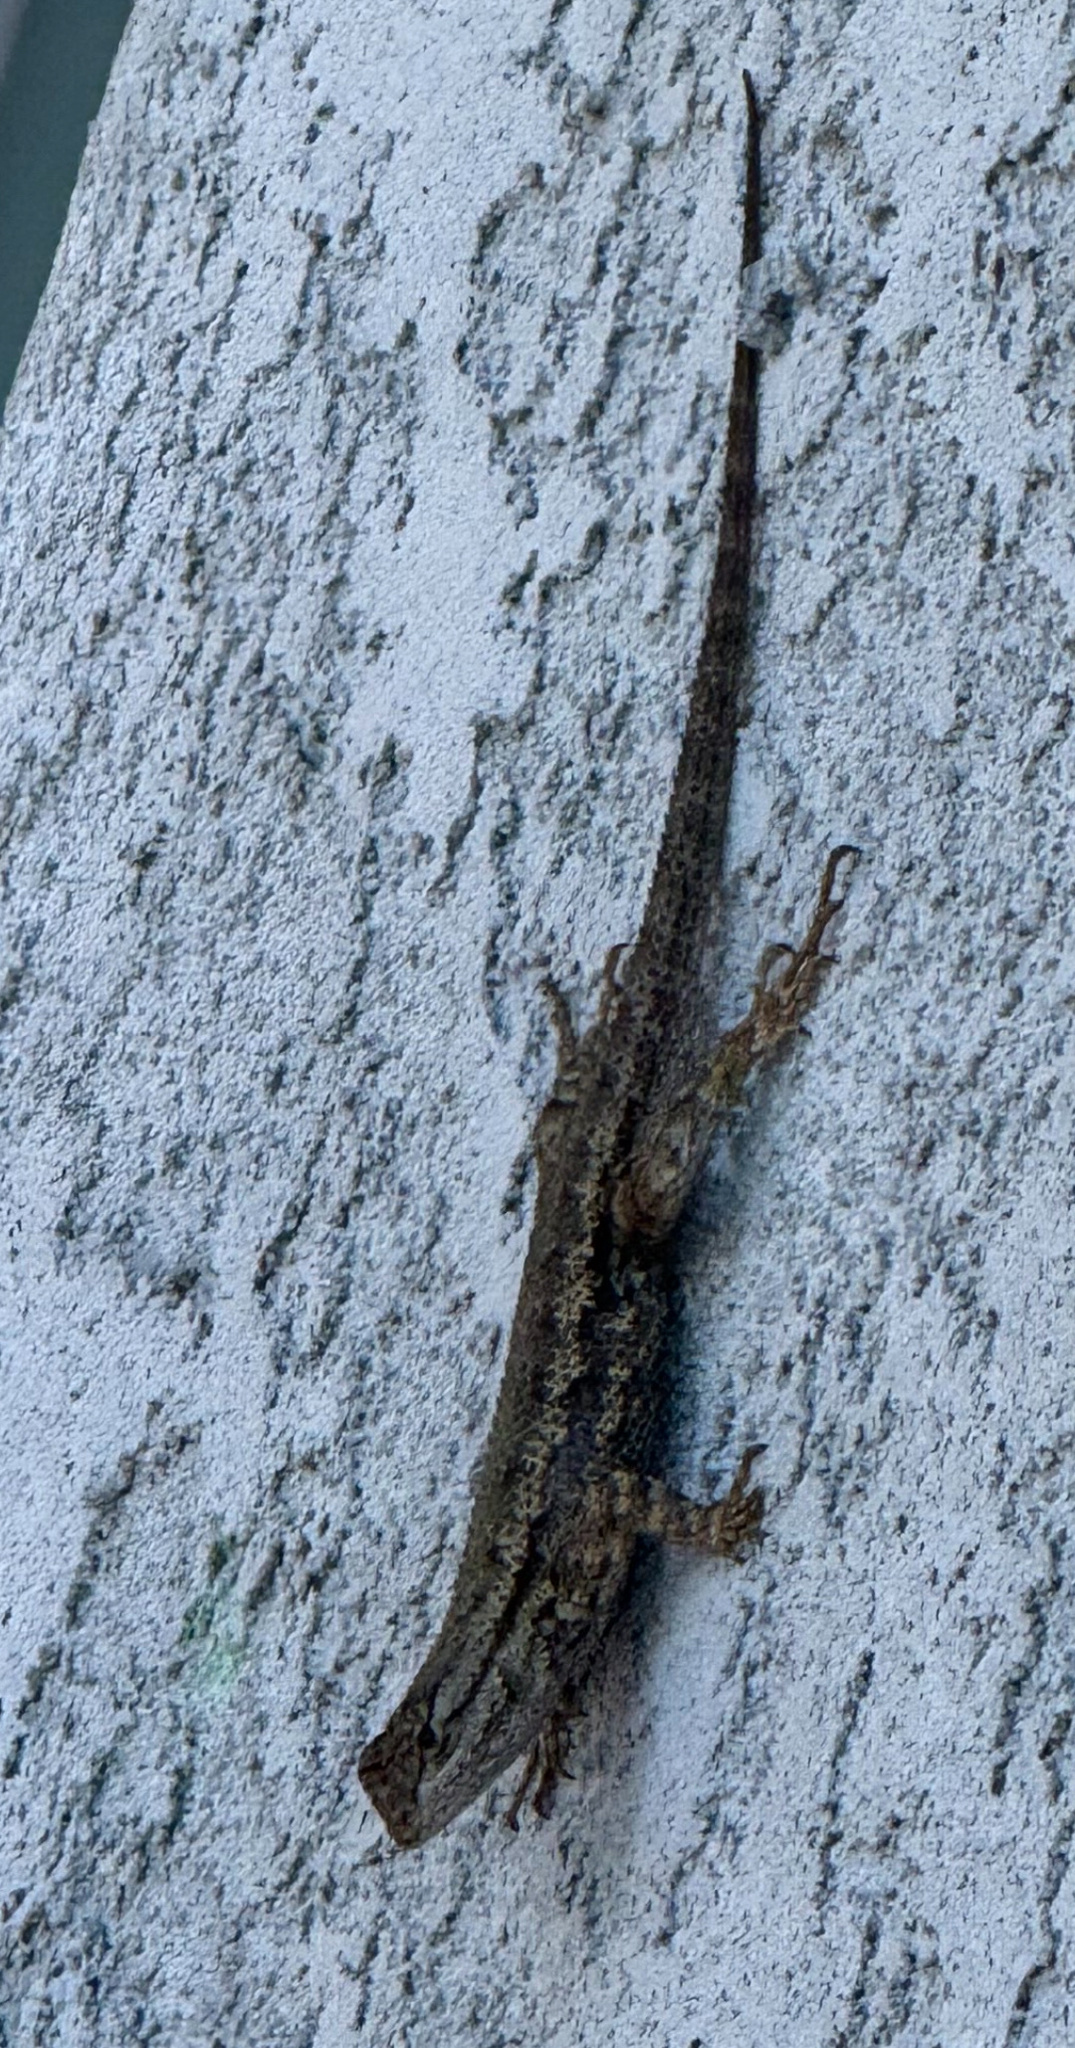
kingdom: Animalia
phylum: Chordata
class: Squamata
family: Phrynosomatidae
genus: Sceloporus
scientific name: Sceloporus occidentalis
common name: Western fence lizard
